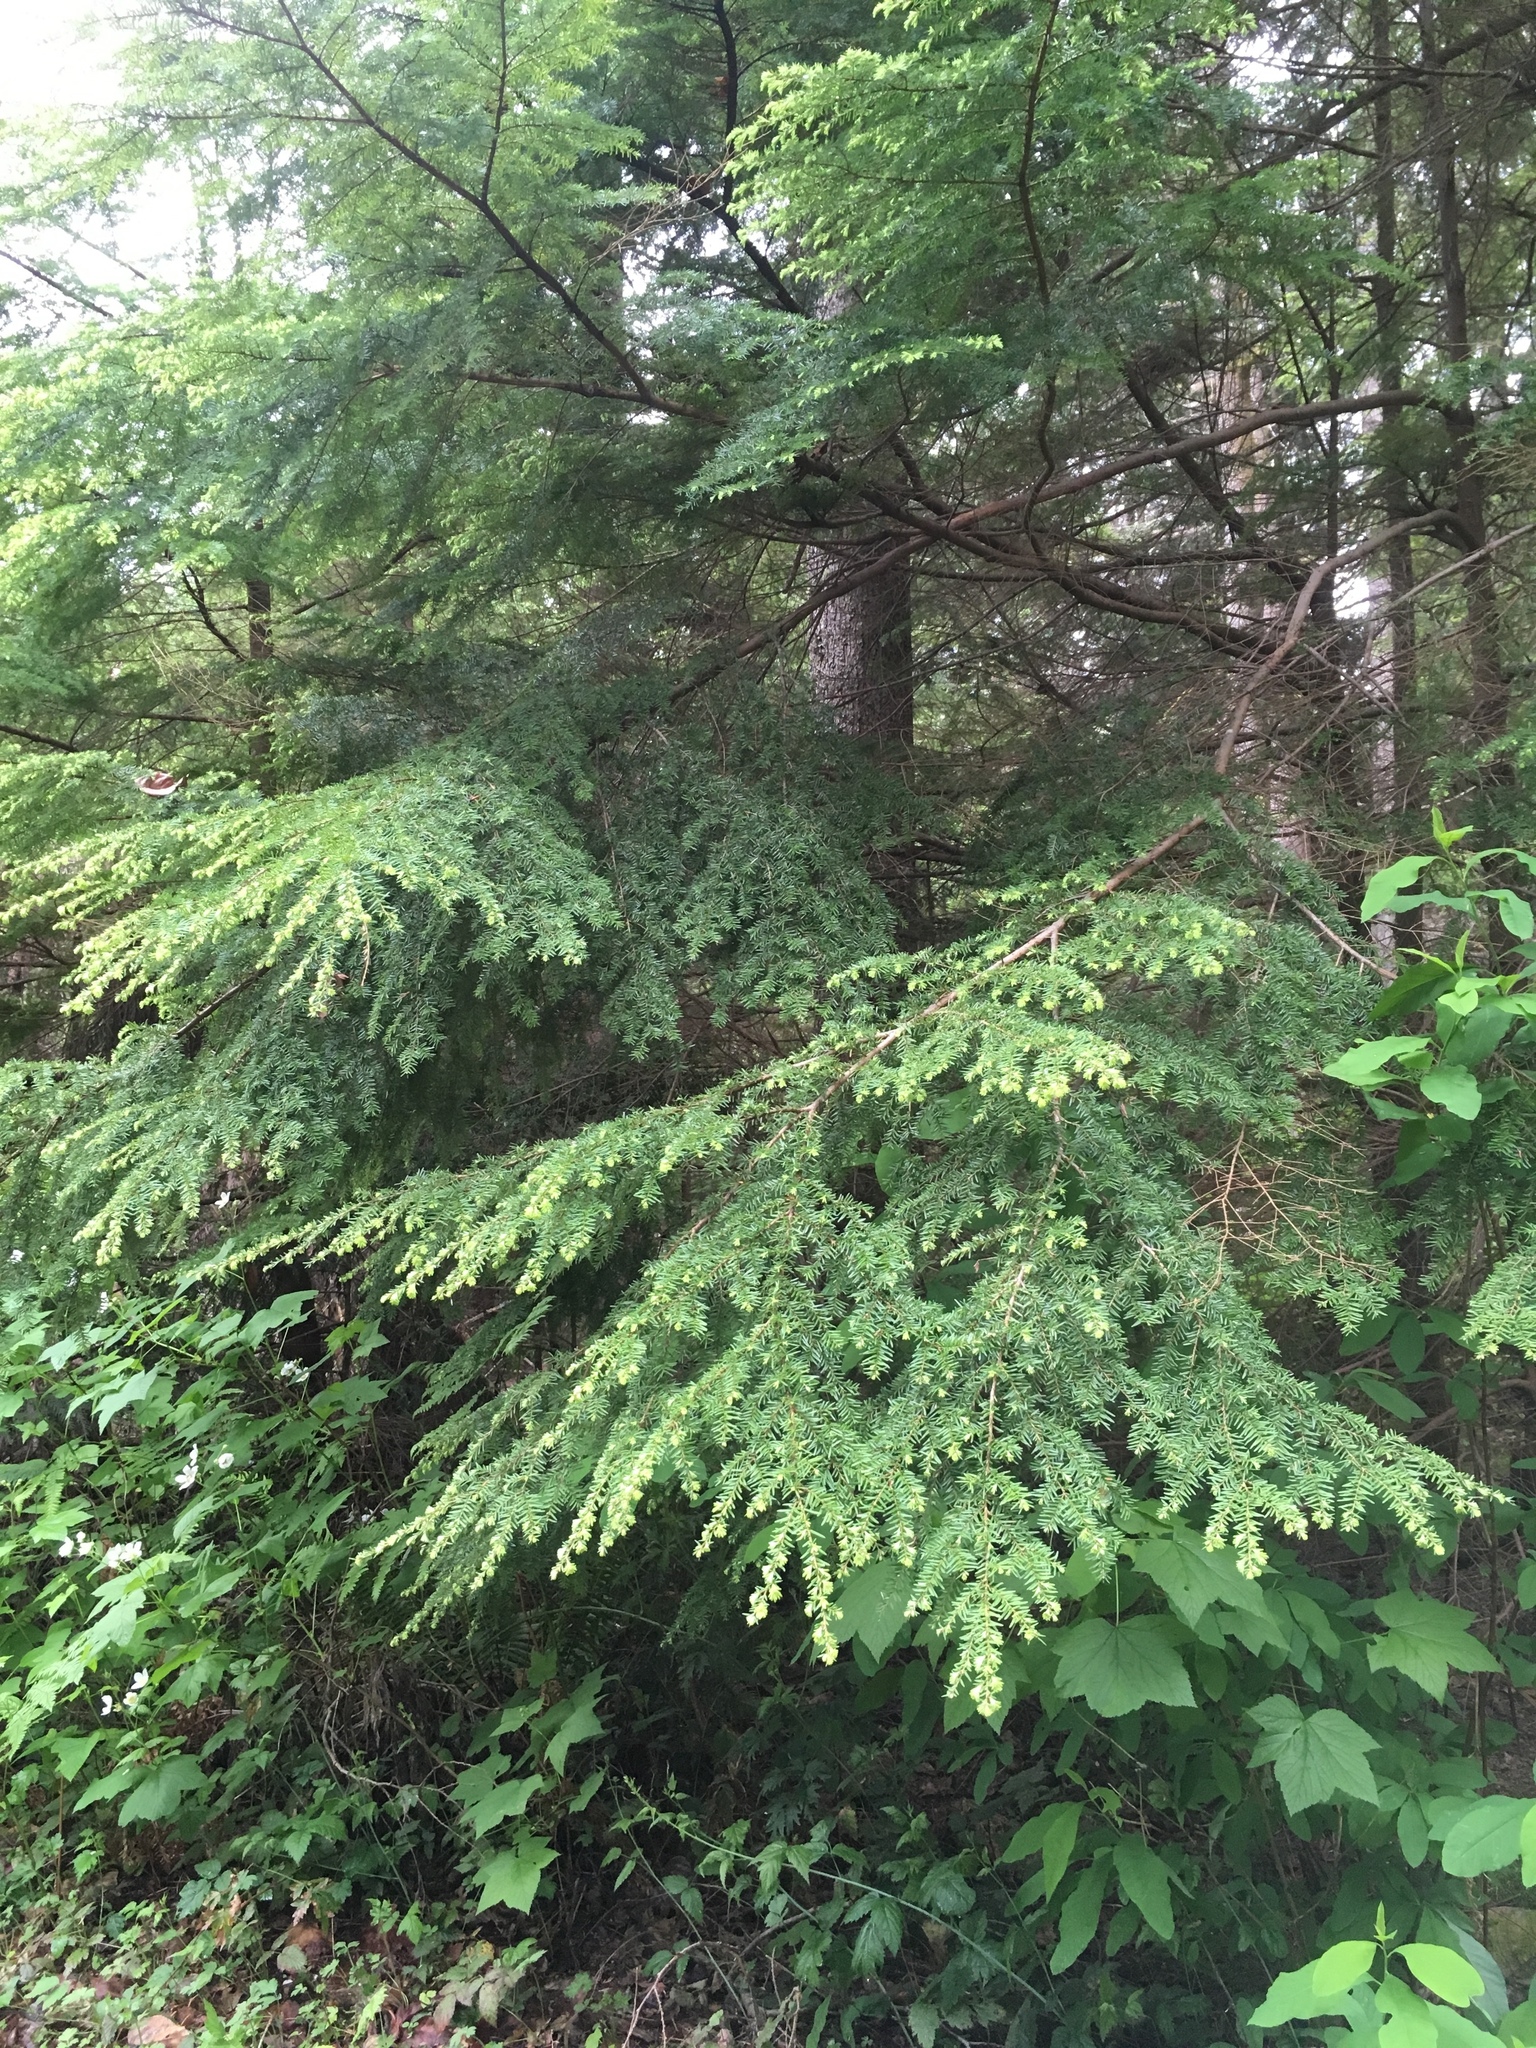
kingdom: Plantae
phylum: Tracheophyta
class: Pinopsida
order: Pinales
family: Pinaceae
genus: Tsuga
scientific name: Tsuga heterophylla
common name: Western hemlock
